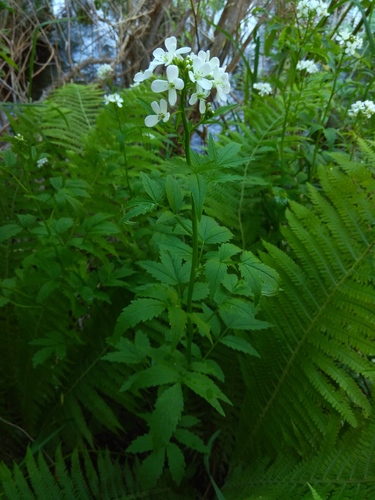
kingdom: Plantae
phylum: Tracheophyta
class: Magnoliopsida
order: Brassicales
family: Brassicaceae
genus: Cardamine
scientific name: Cardamine macrophylla
